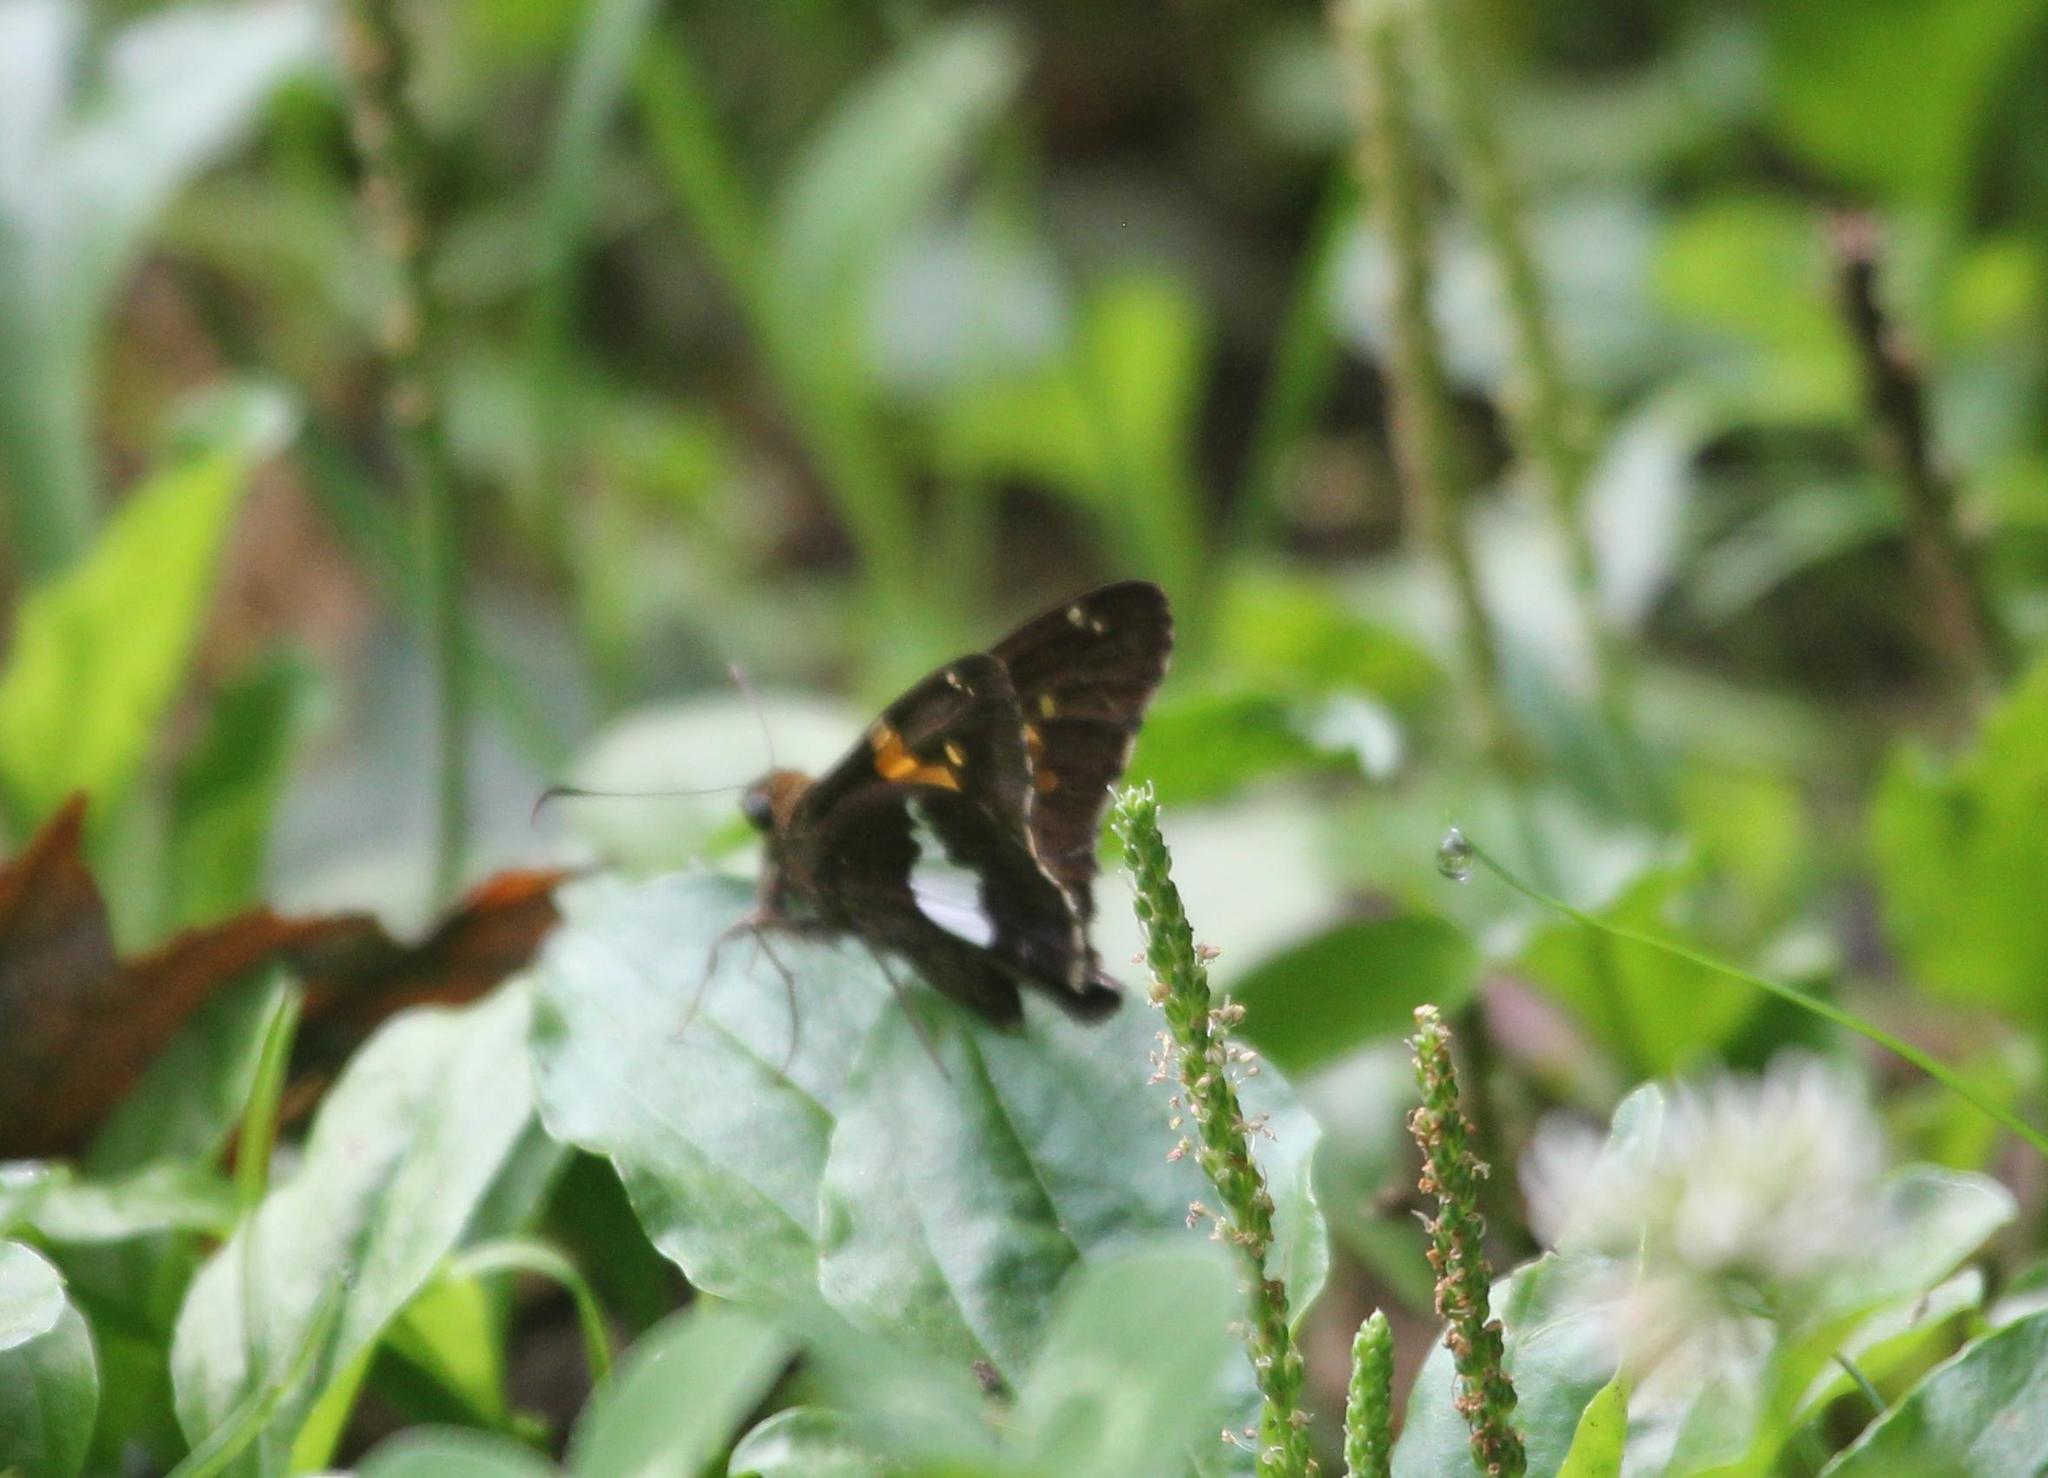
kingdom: Animalia
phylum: Arthropoda
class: Insecta
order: Lepidoptera
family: Hesperiidae
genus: Epargyreus
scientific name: Epargyreus clarus
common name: Silver-spotted skipper
